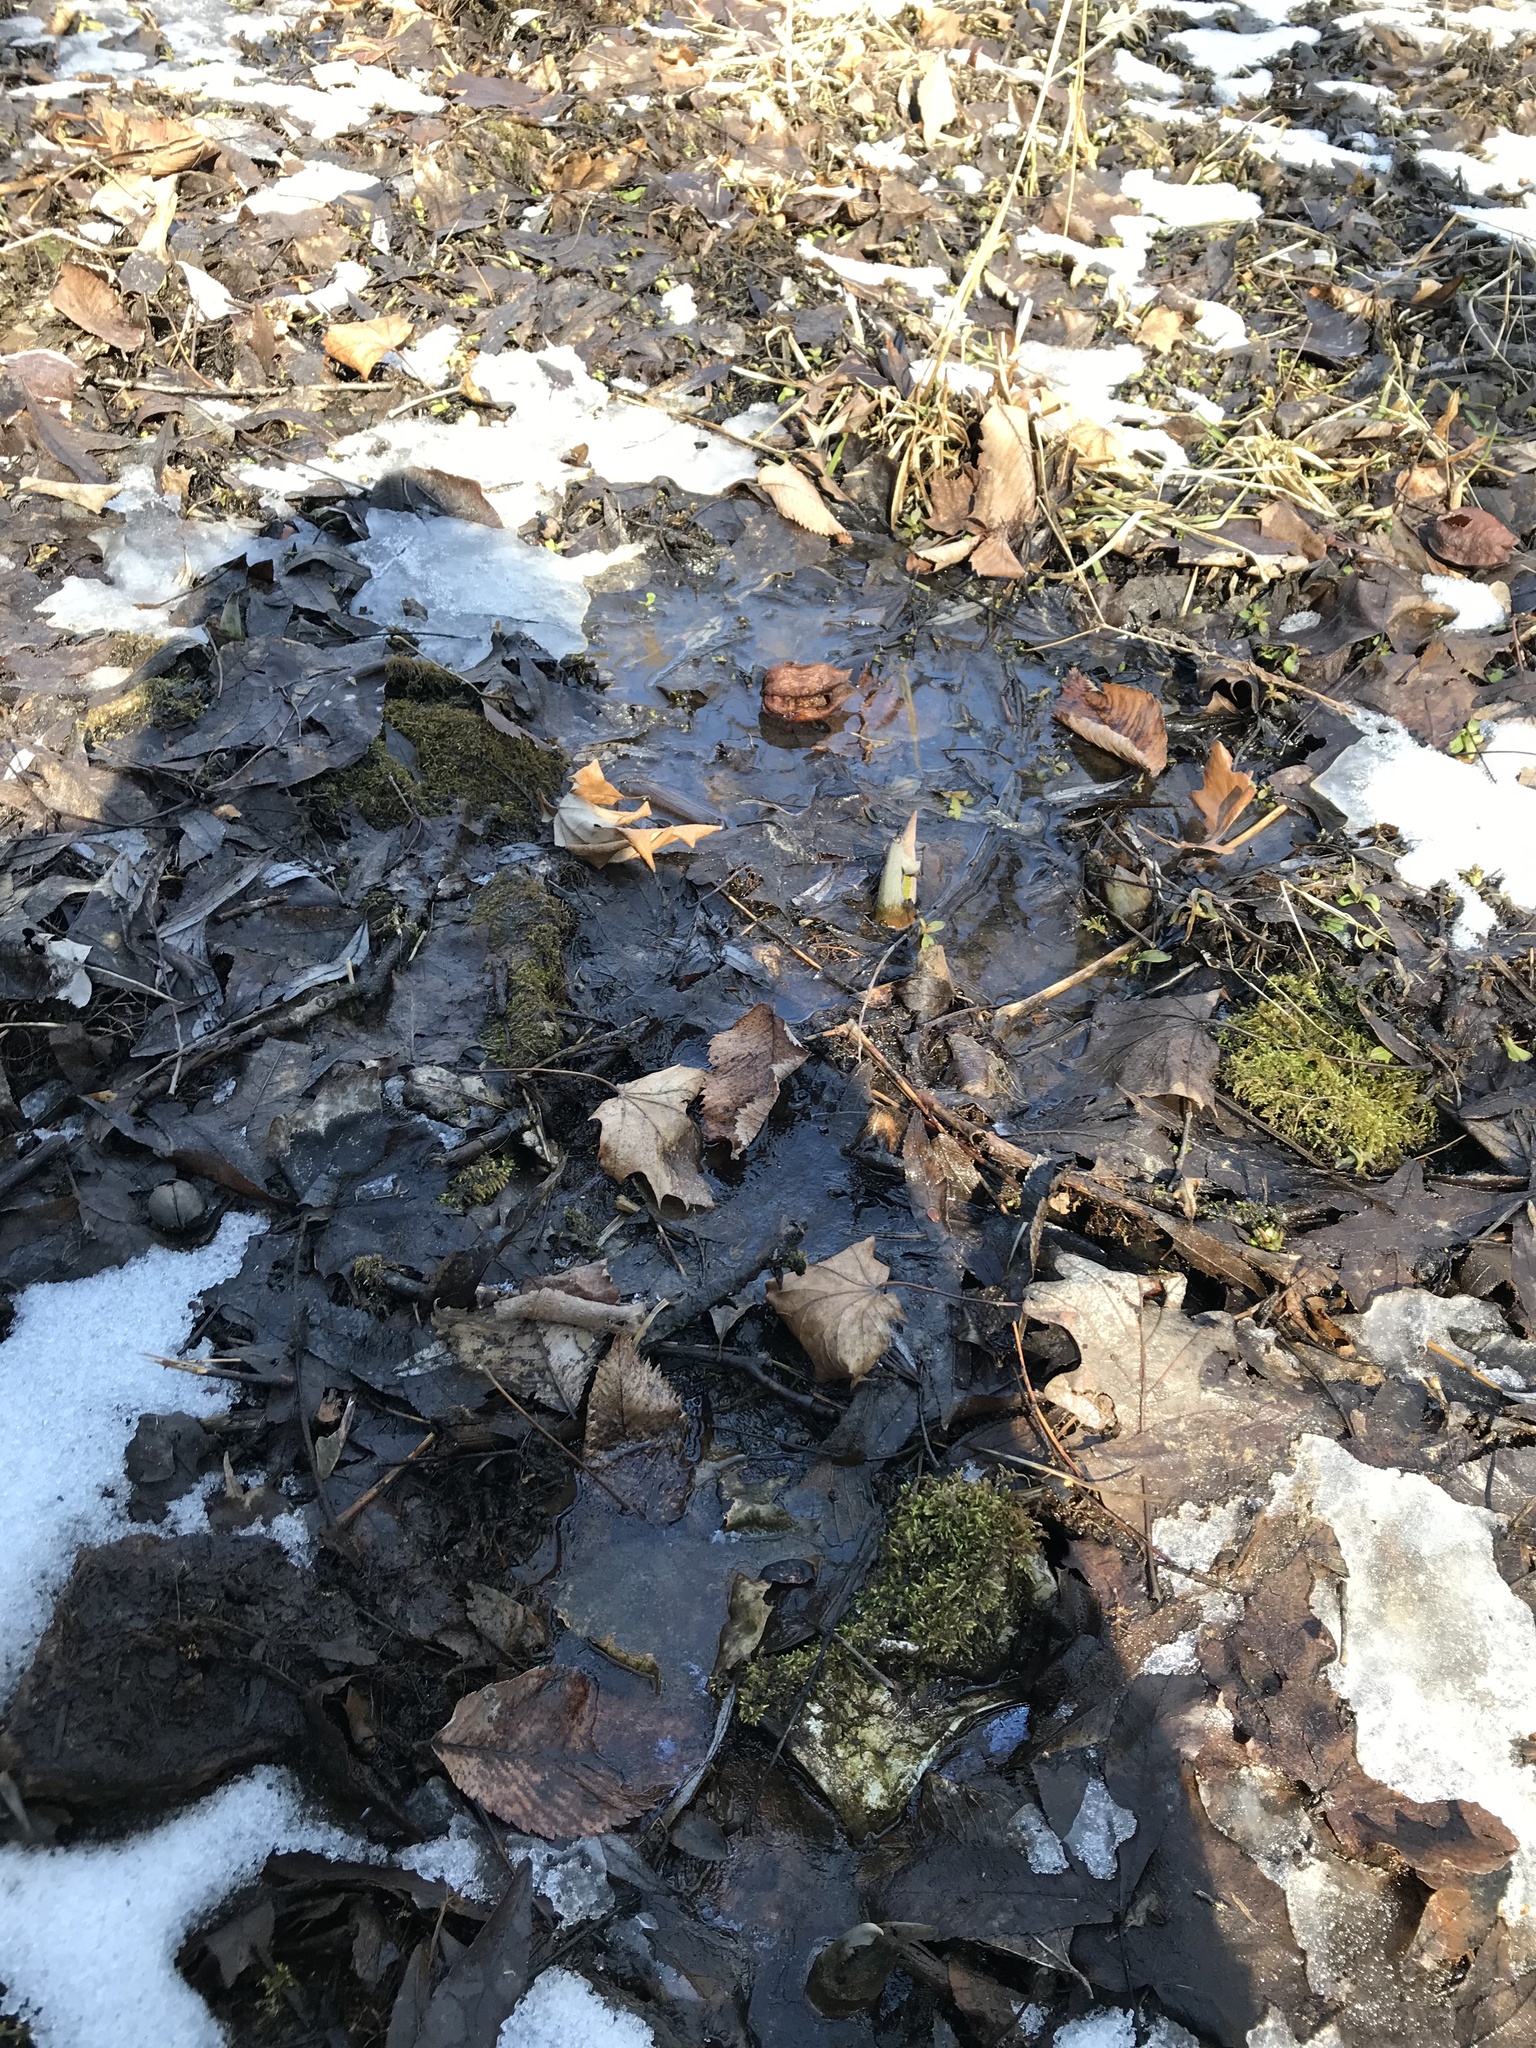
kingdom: Plantae
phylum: Tracheophyta
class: Liliopsida
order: Alismatales
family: Araceae
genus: Symplocarpus
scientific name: Symplocarpus foetidus
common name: Eastern skunk cabbage
